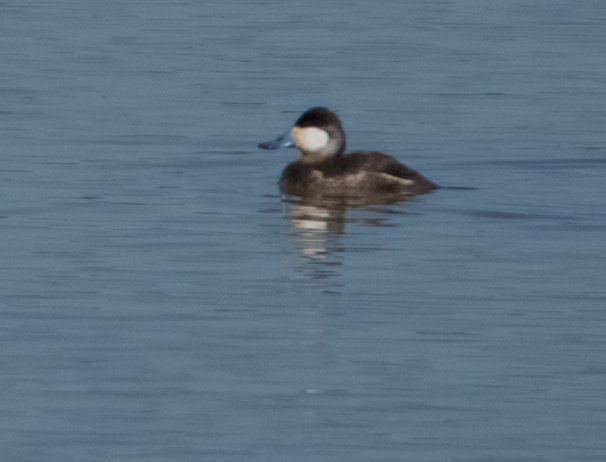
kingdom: Animalia
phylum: Chordata
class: Aves
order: Anseriformes
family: Anatidae
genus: Oxyura
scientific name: Oxyura jamaicensis
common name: Ruddy duck
